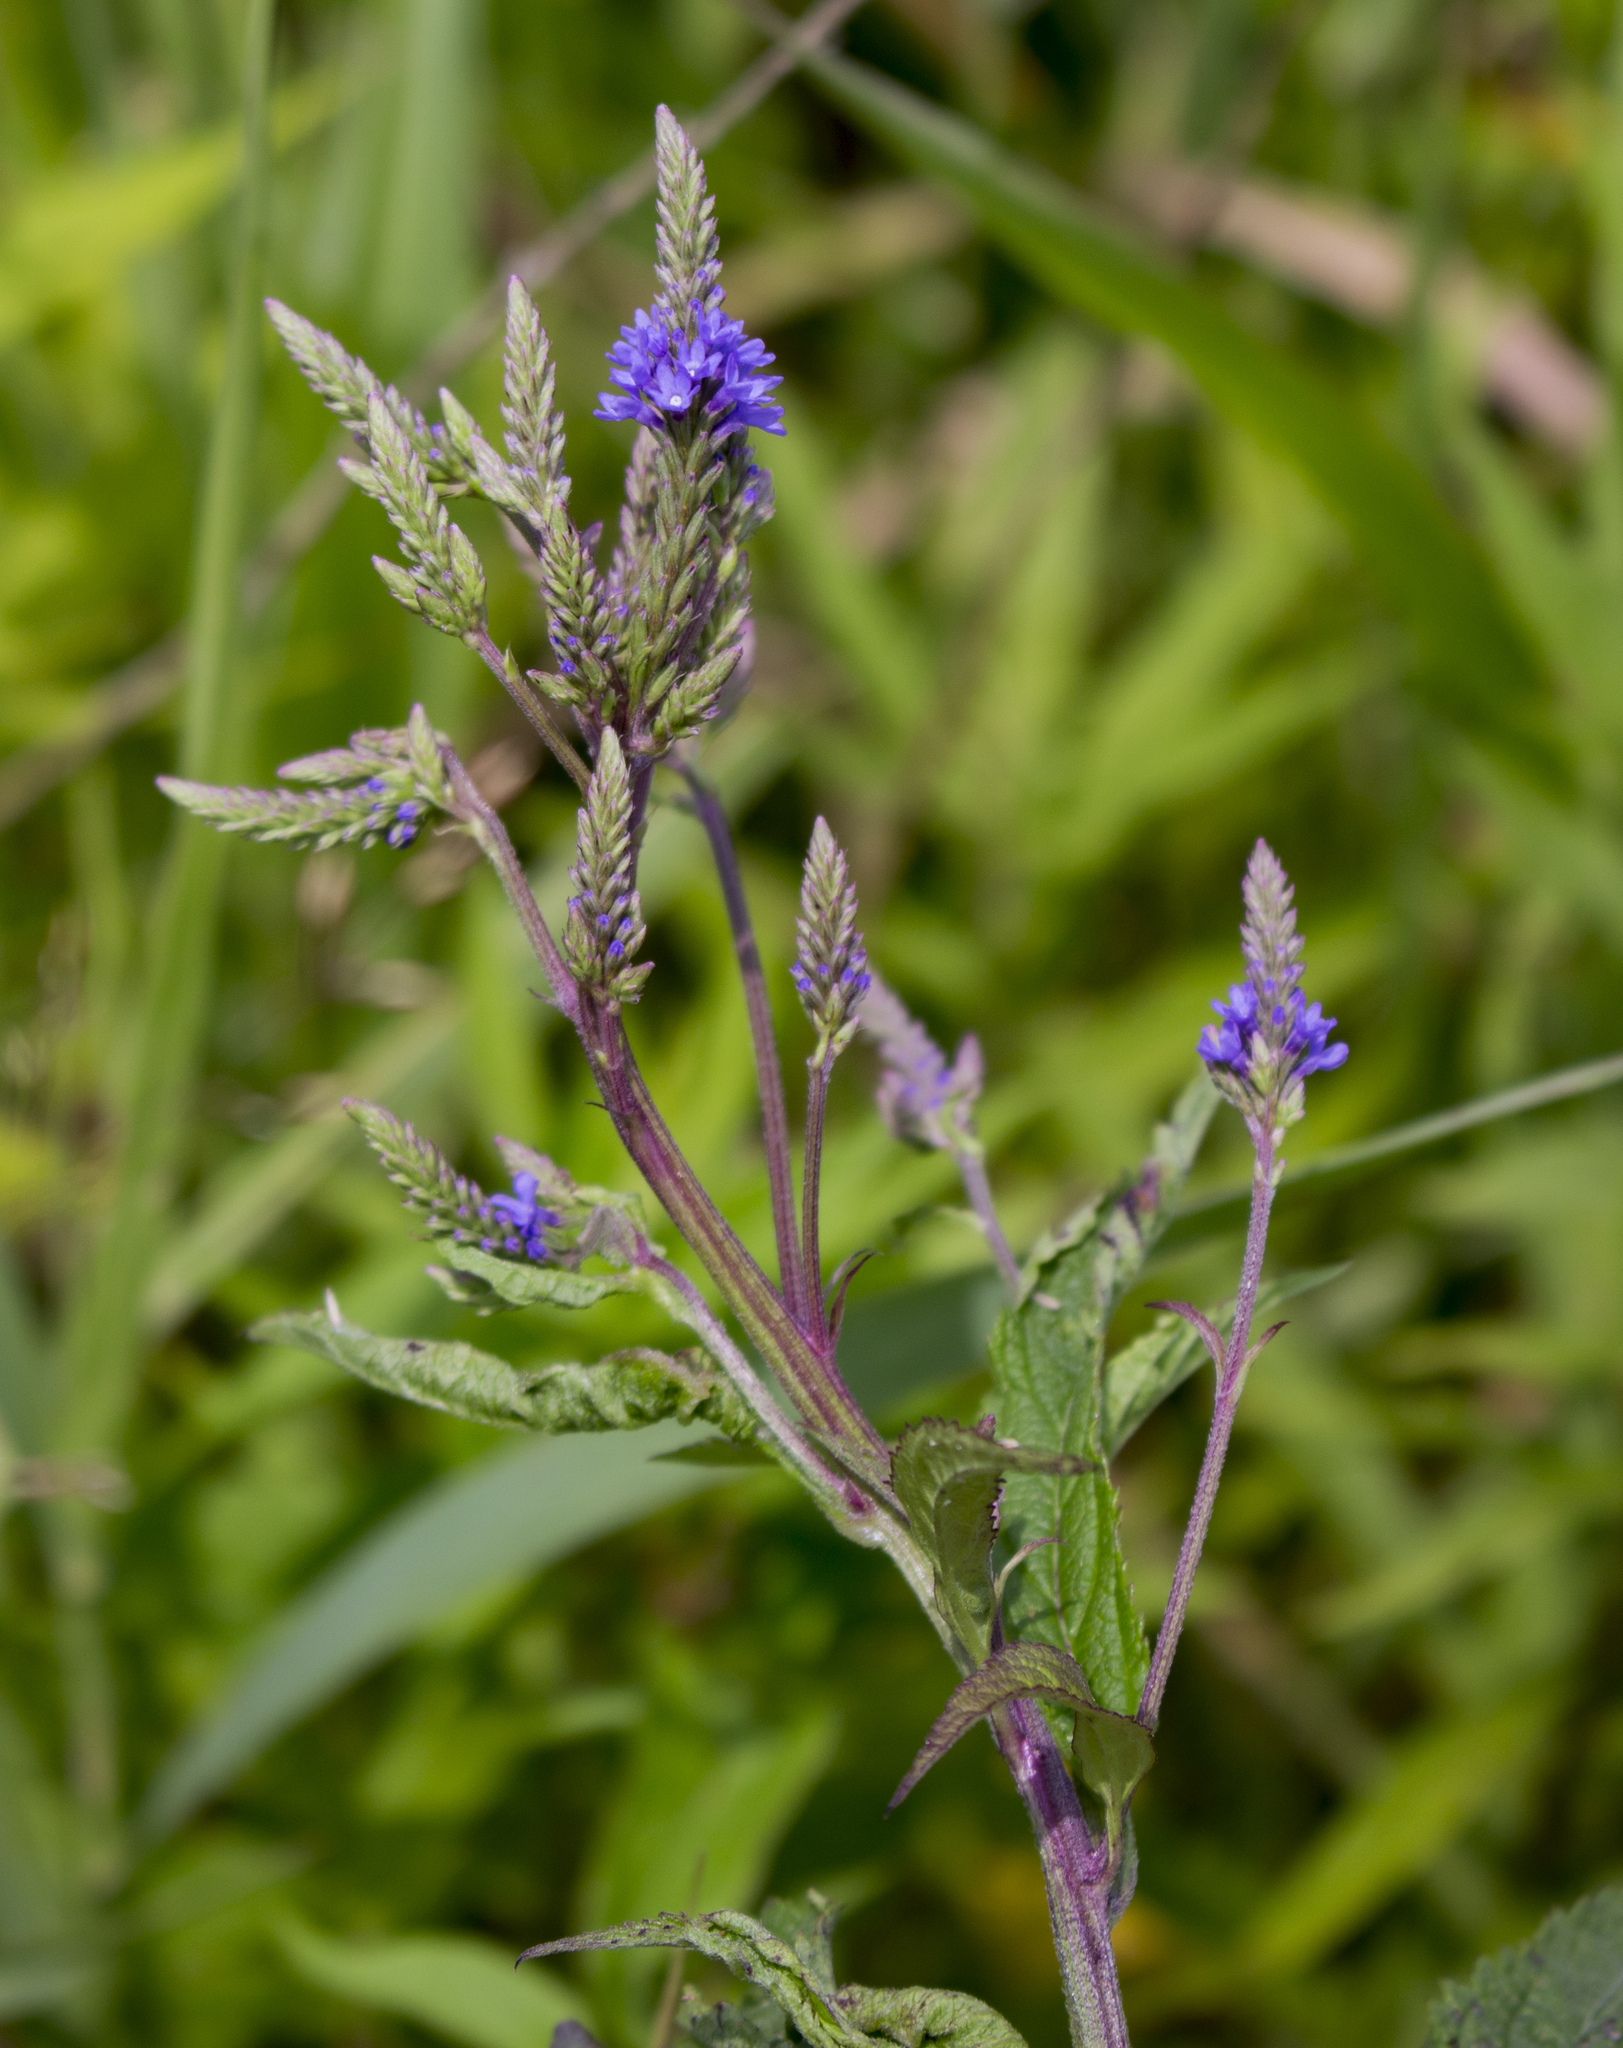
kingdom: Plantae
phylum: Tracheophyta
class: Magnoliopsida
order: Lamiales
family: Verbenaceae
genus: Verbena
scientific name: Verbena hastata
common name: American blue vervain
